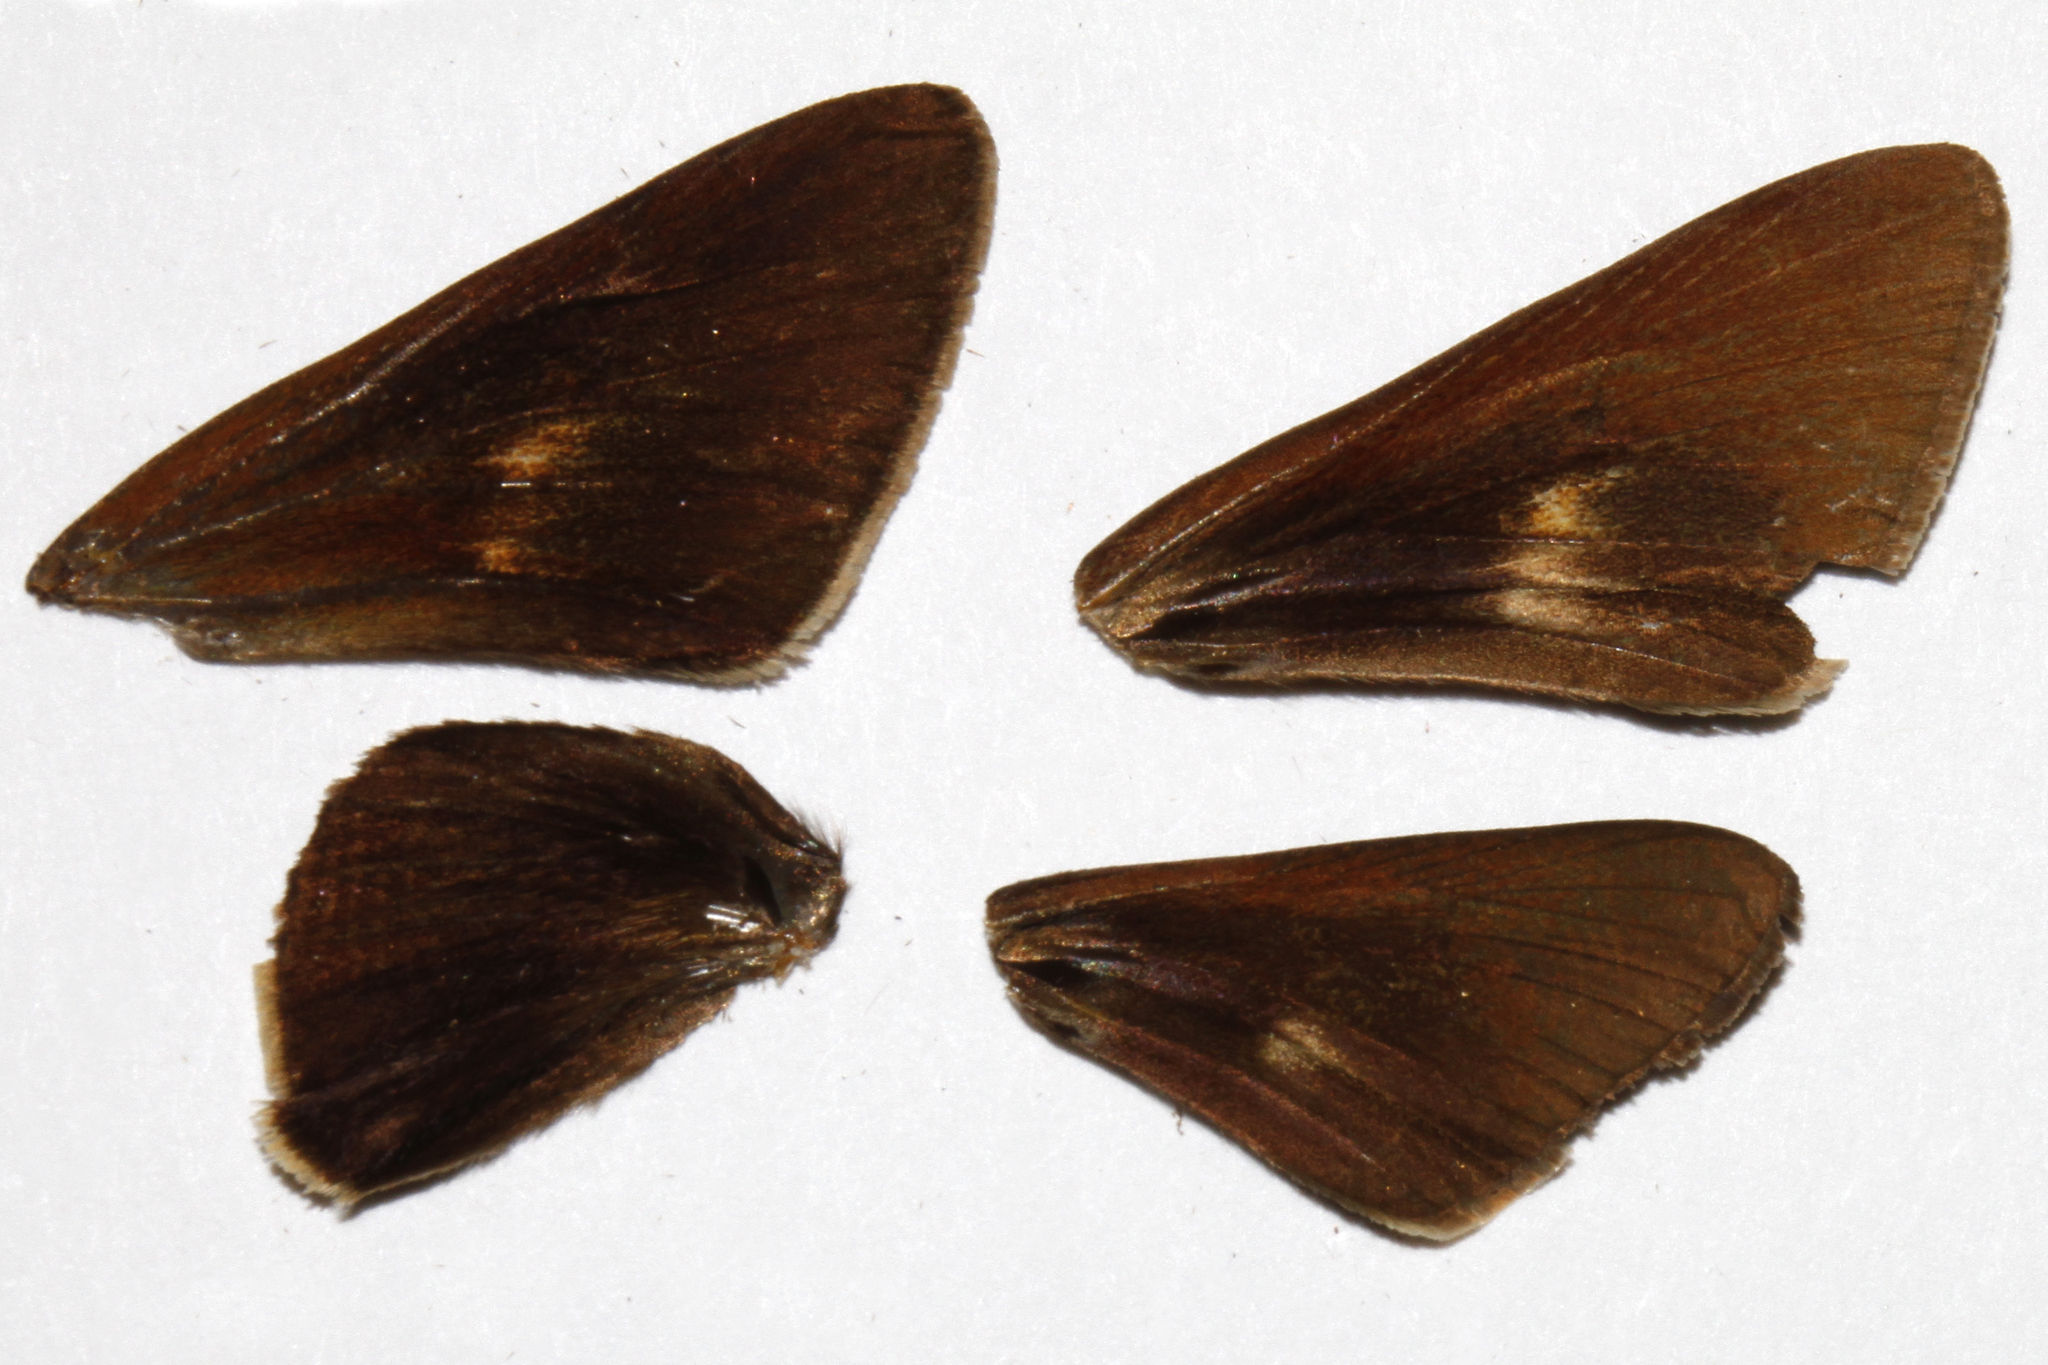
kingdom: Animalia
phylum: Arthropoda
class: Insecta
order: Lepidoptera
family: Hesperiidae
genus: Asbolis
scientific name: Asbolis capucinus
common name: Monk skipper
